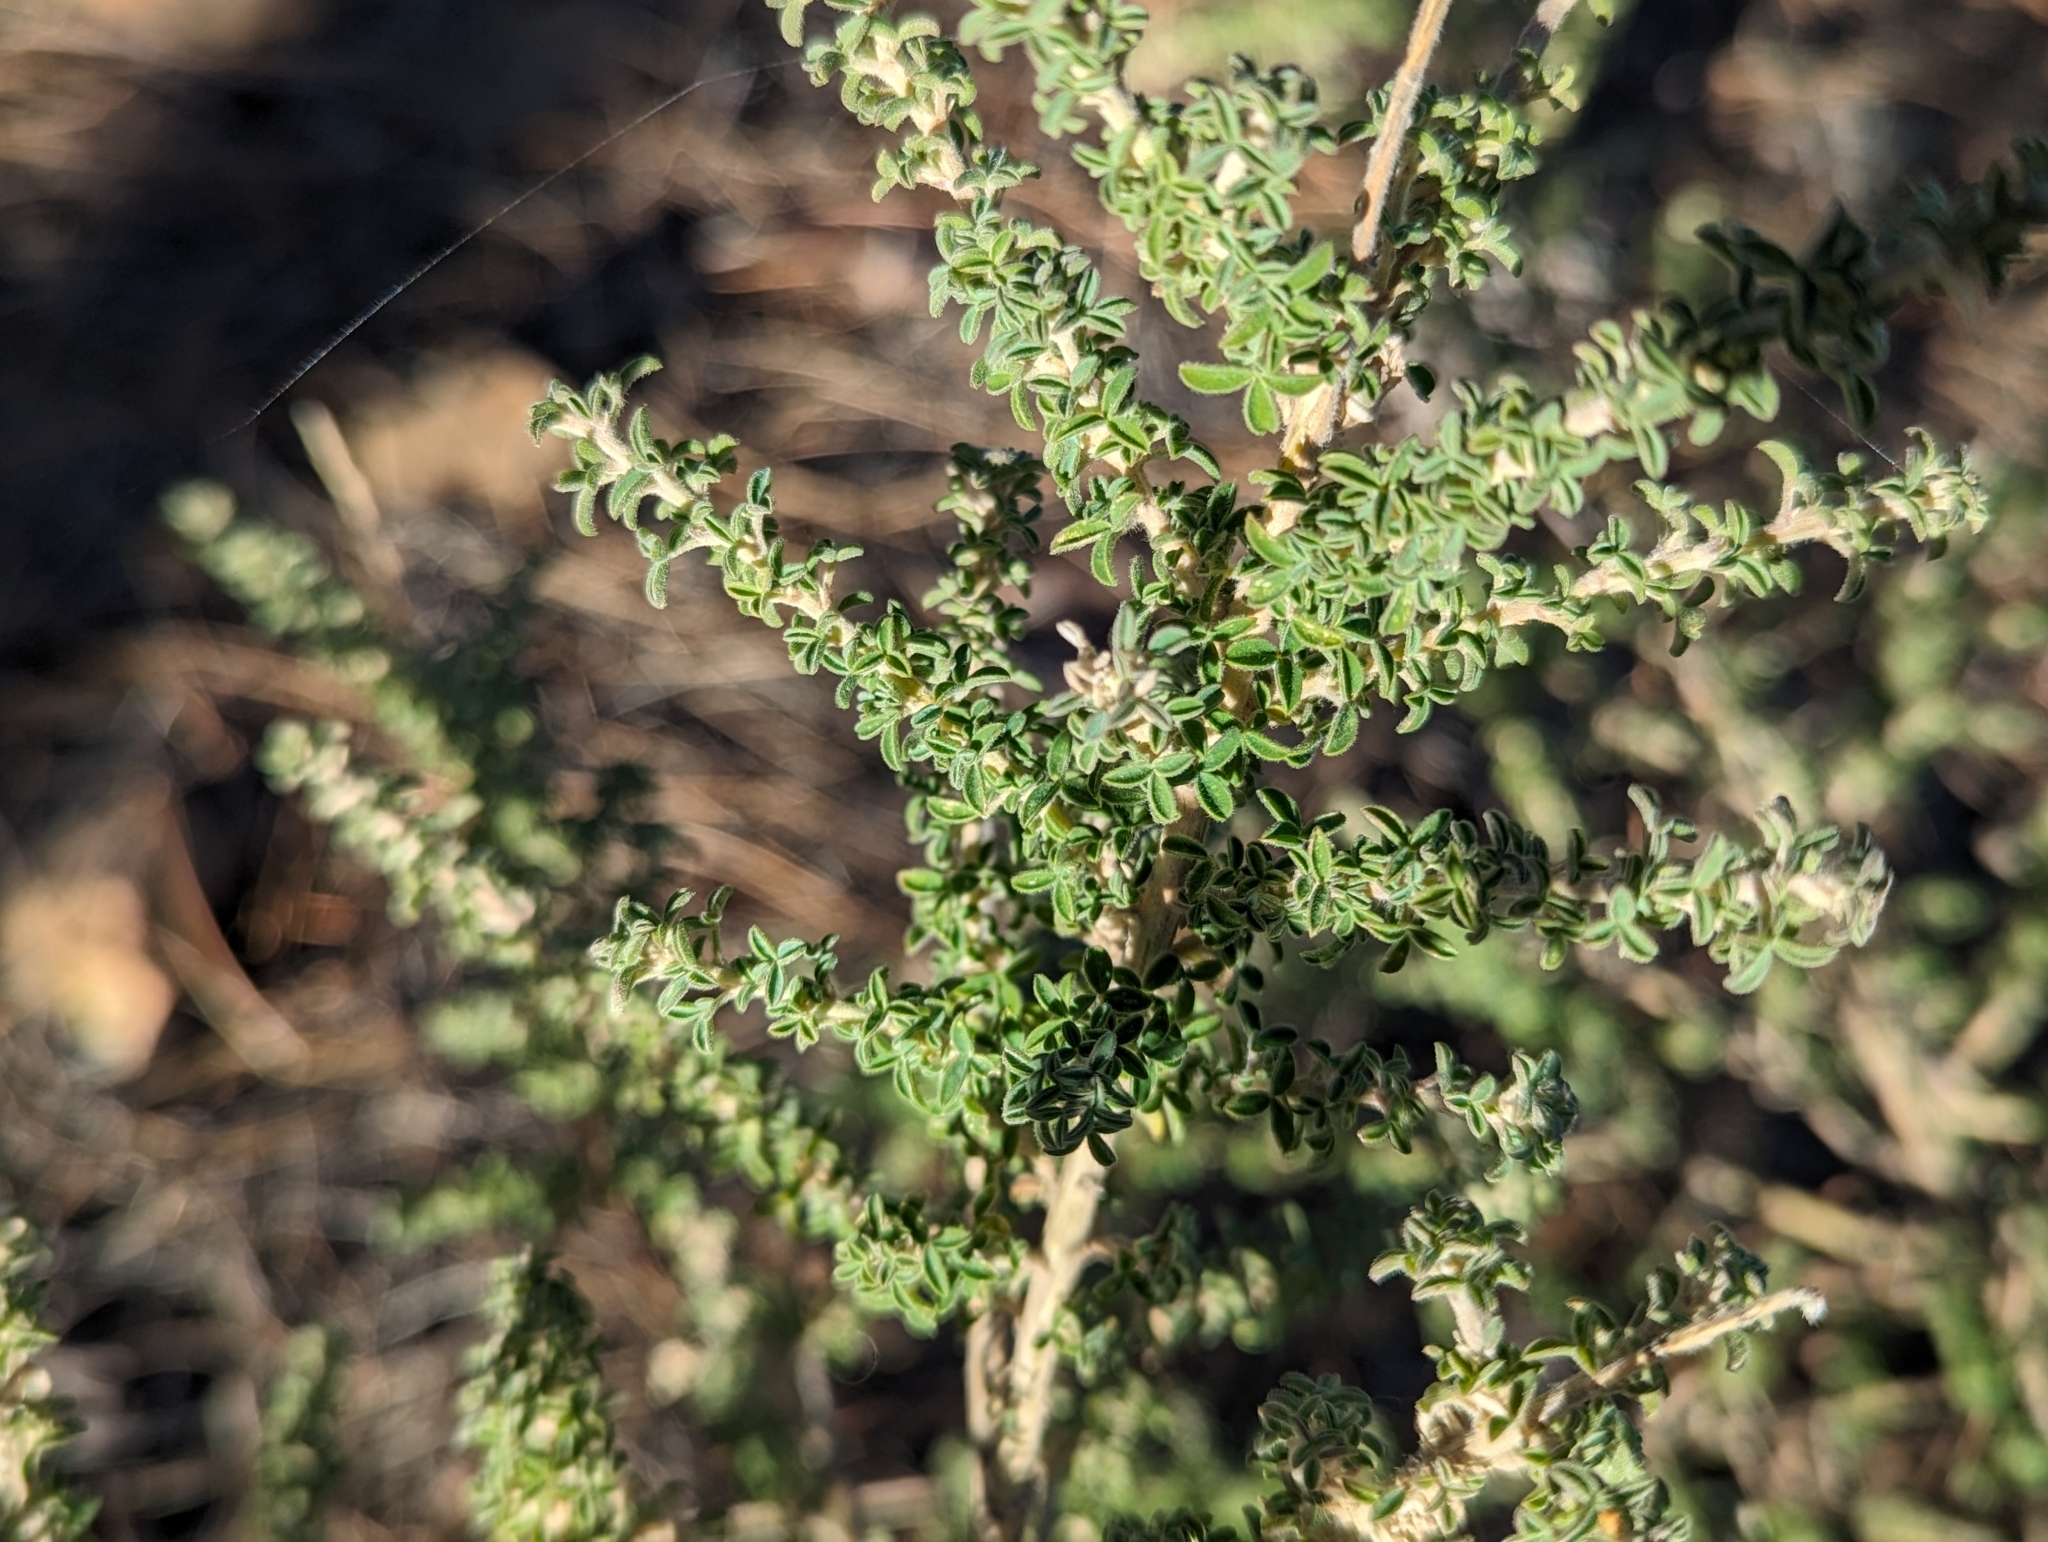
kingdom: Plantae
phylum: Tracheophyta
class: Magnoliopsida
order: Fabales
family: Fabaceae
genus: Adenocarpus
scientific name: Adenocarpus foliolosus
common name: Canary island flatpod
